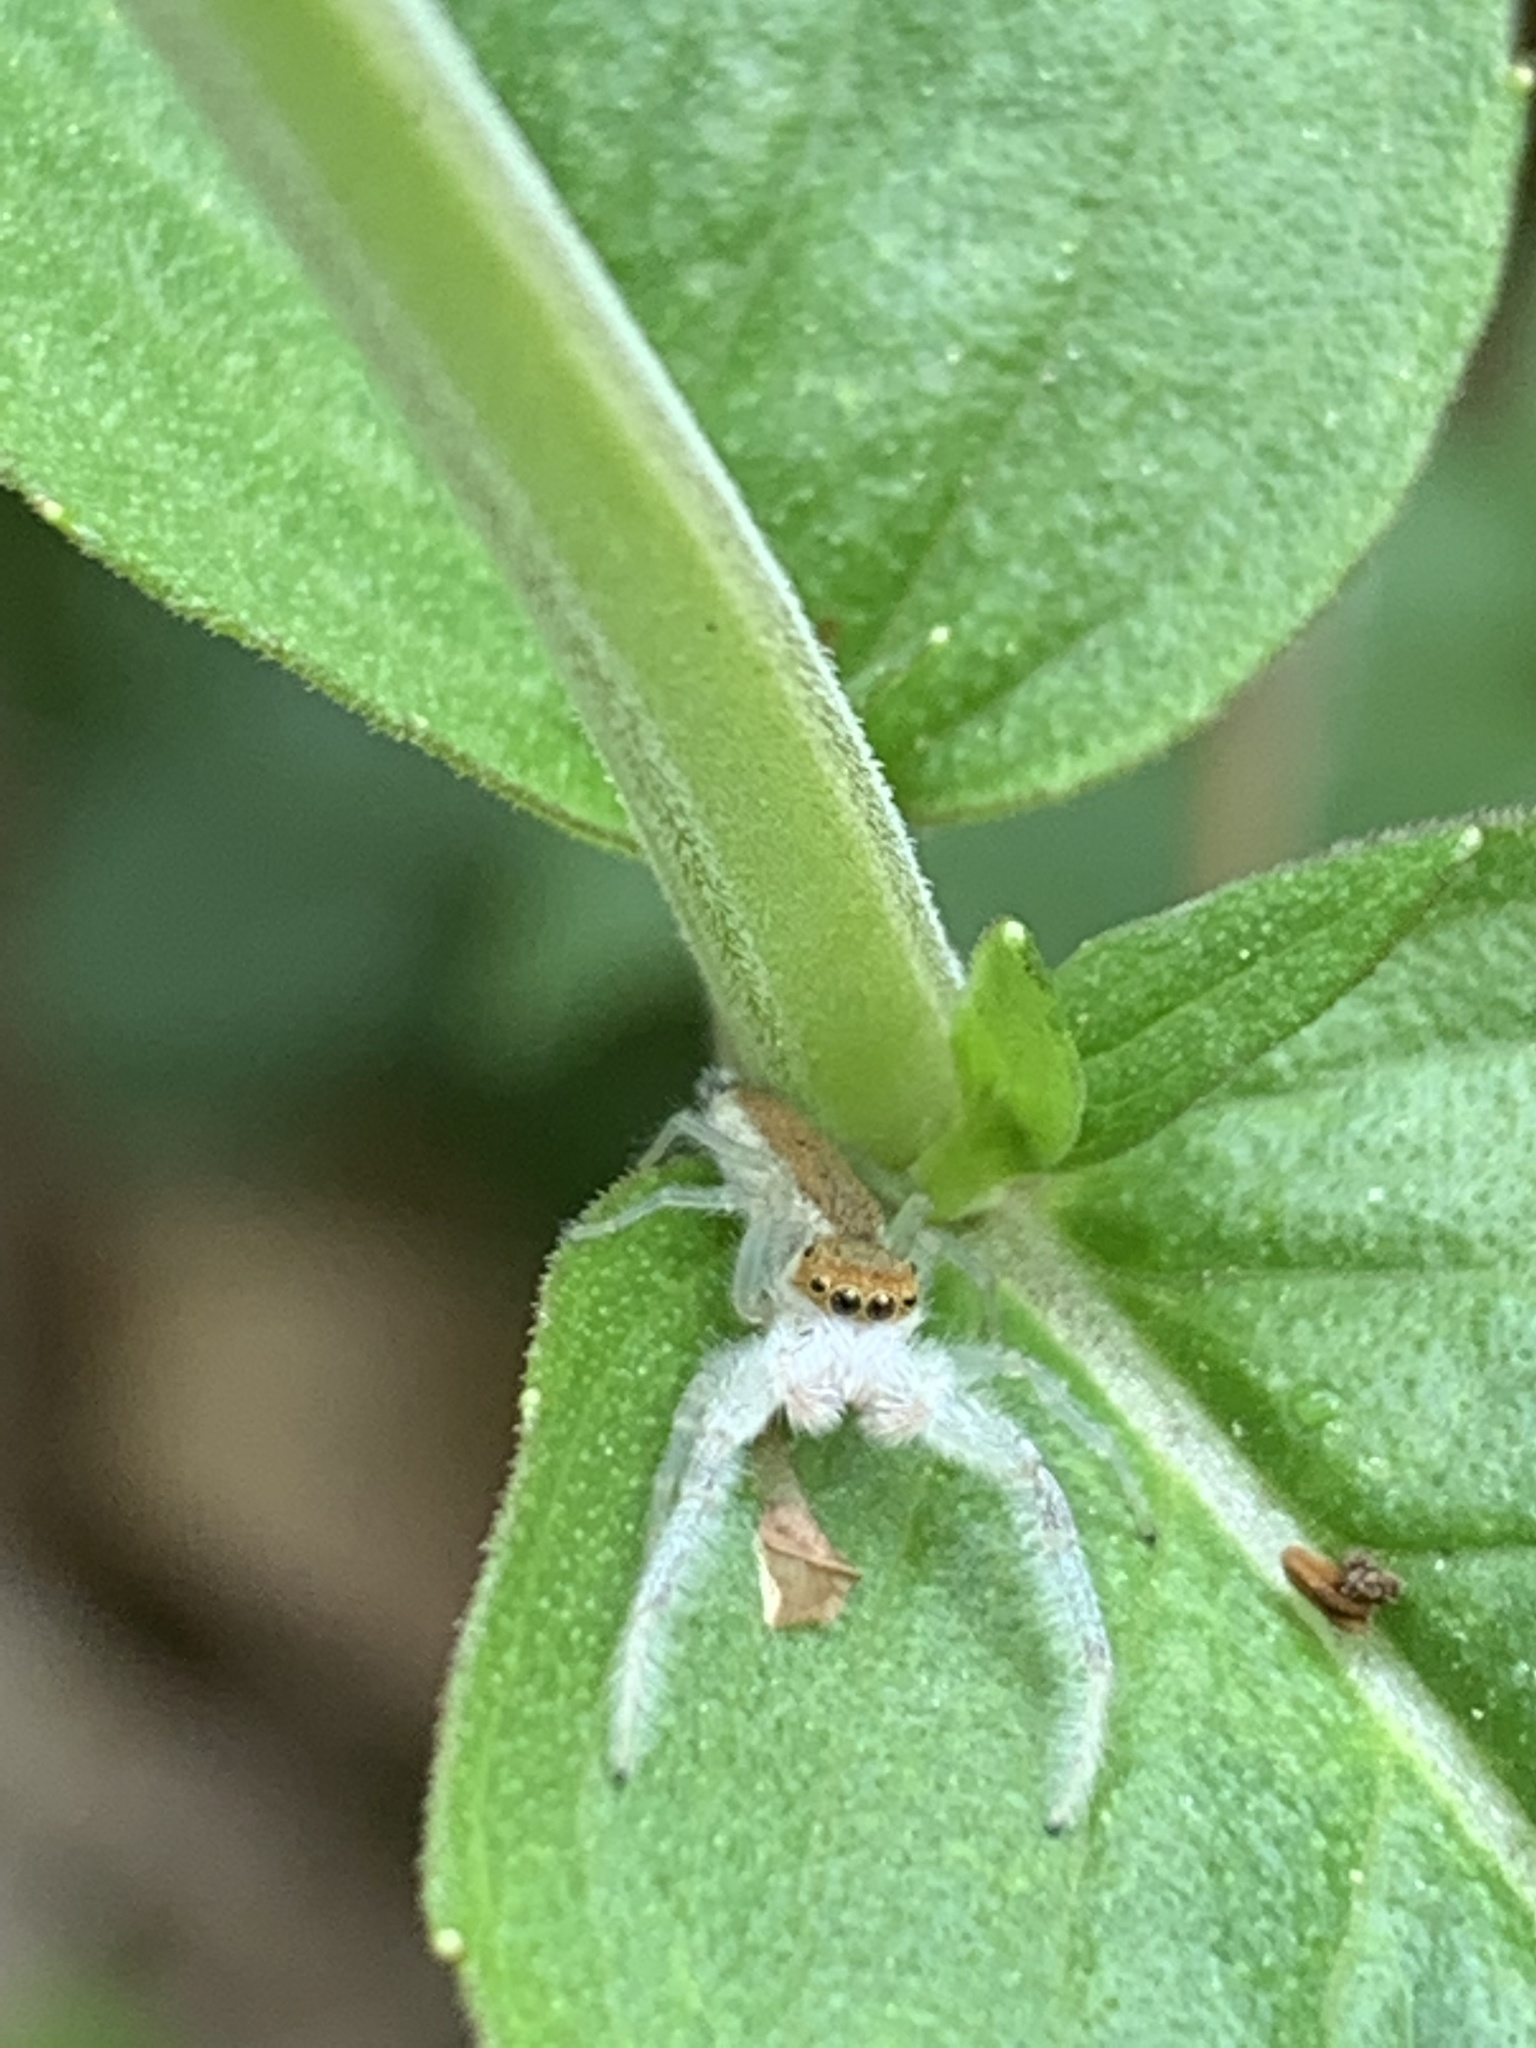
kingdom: Animalia
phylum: Arthropoda
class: Arachnida
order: Araneae
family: Salticidae
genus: Hentzia
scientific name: Hentzia mitrata
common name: White-jawed jumping spider
